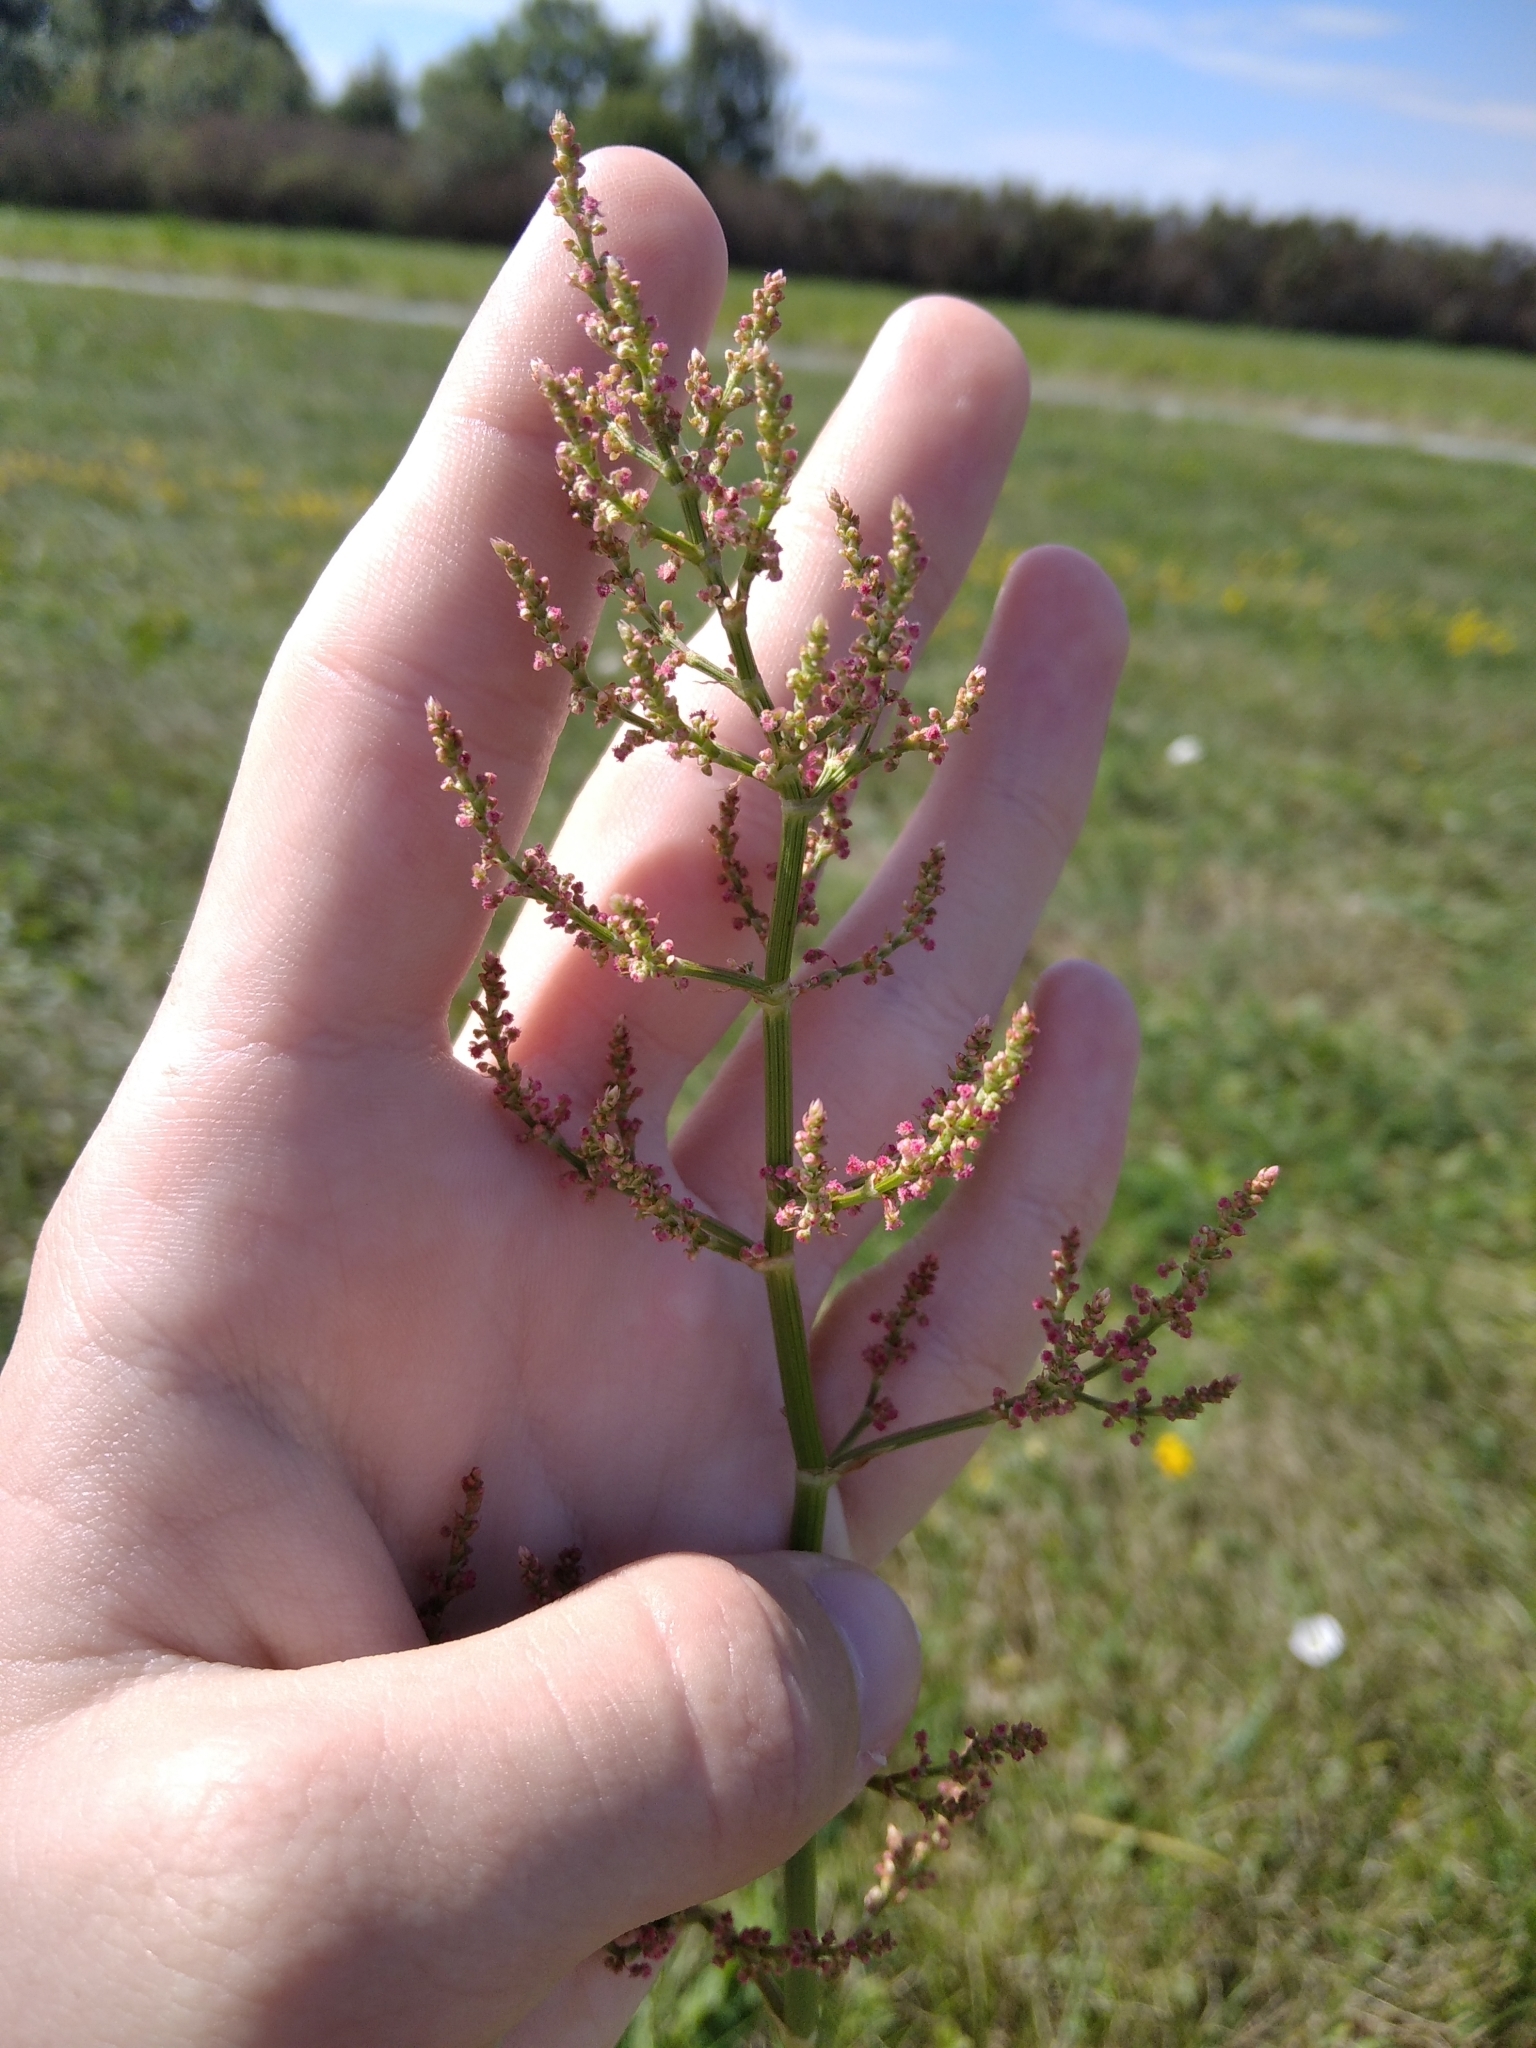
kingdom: Plantae
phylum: Tracheophyta
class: Magnoliopsida
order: Caryophyllales
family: Polygonaceae
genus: Rumex
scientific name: Rumex thyrsiflorus
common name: Garden sorrel
